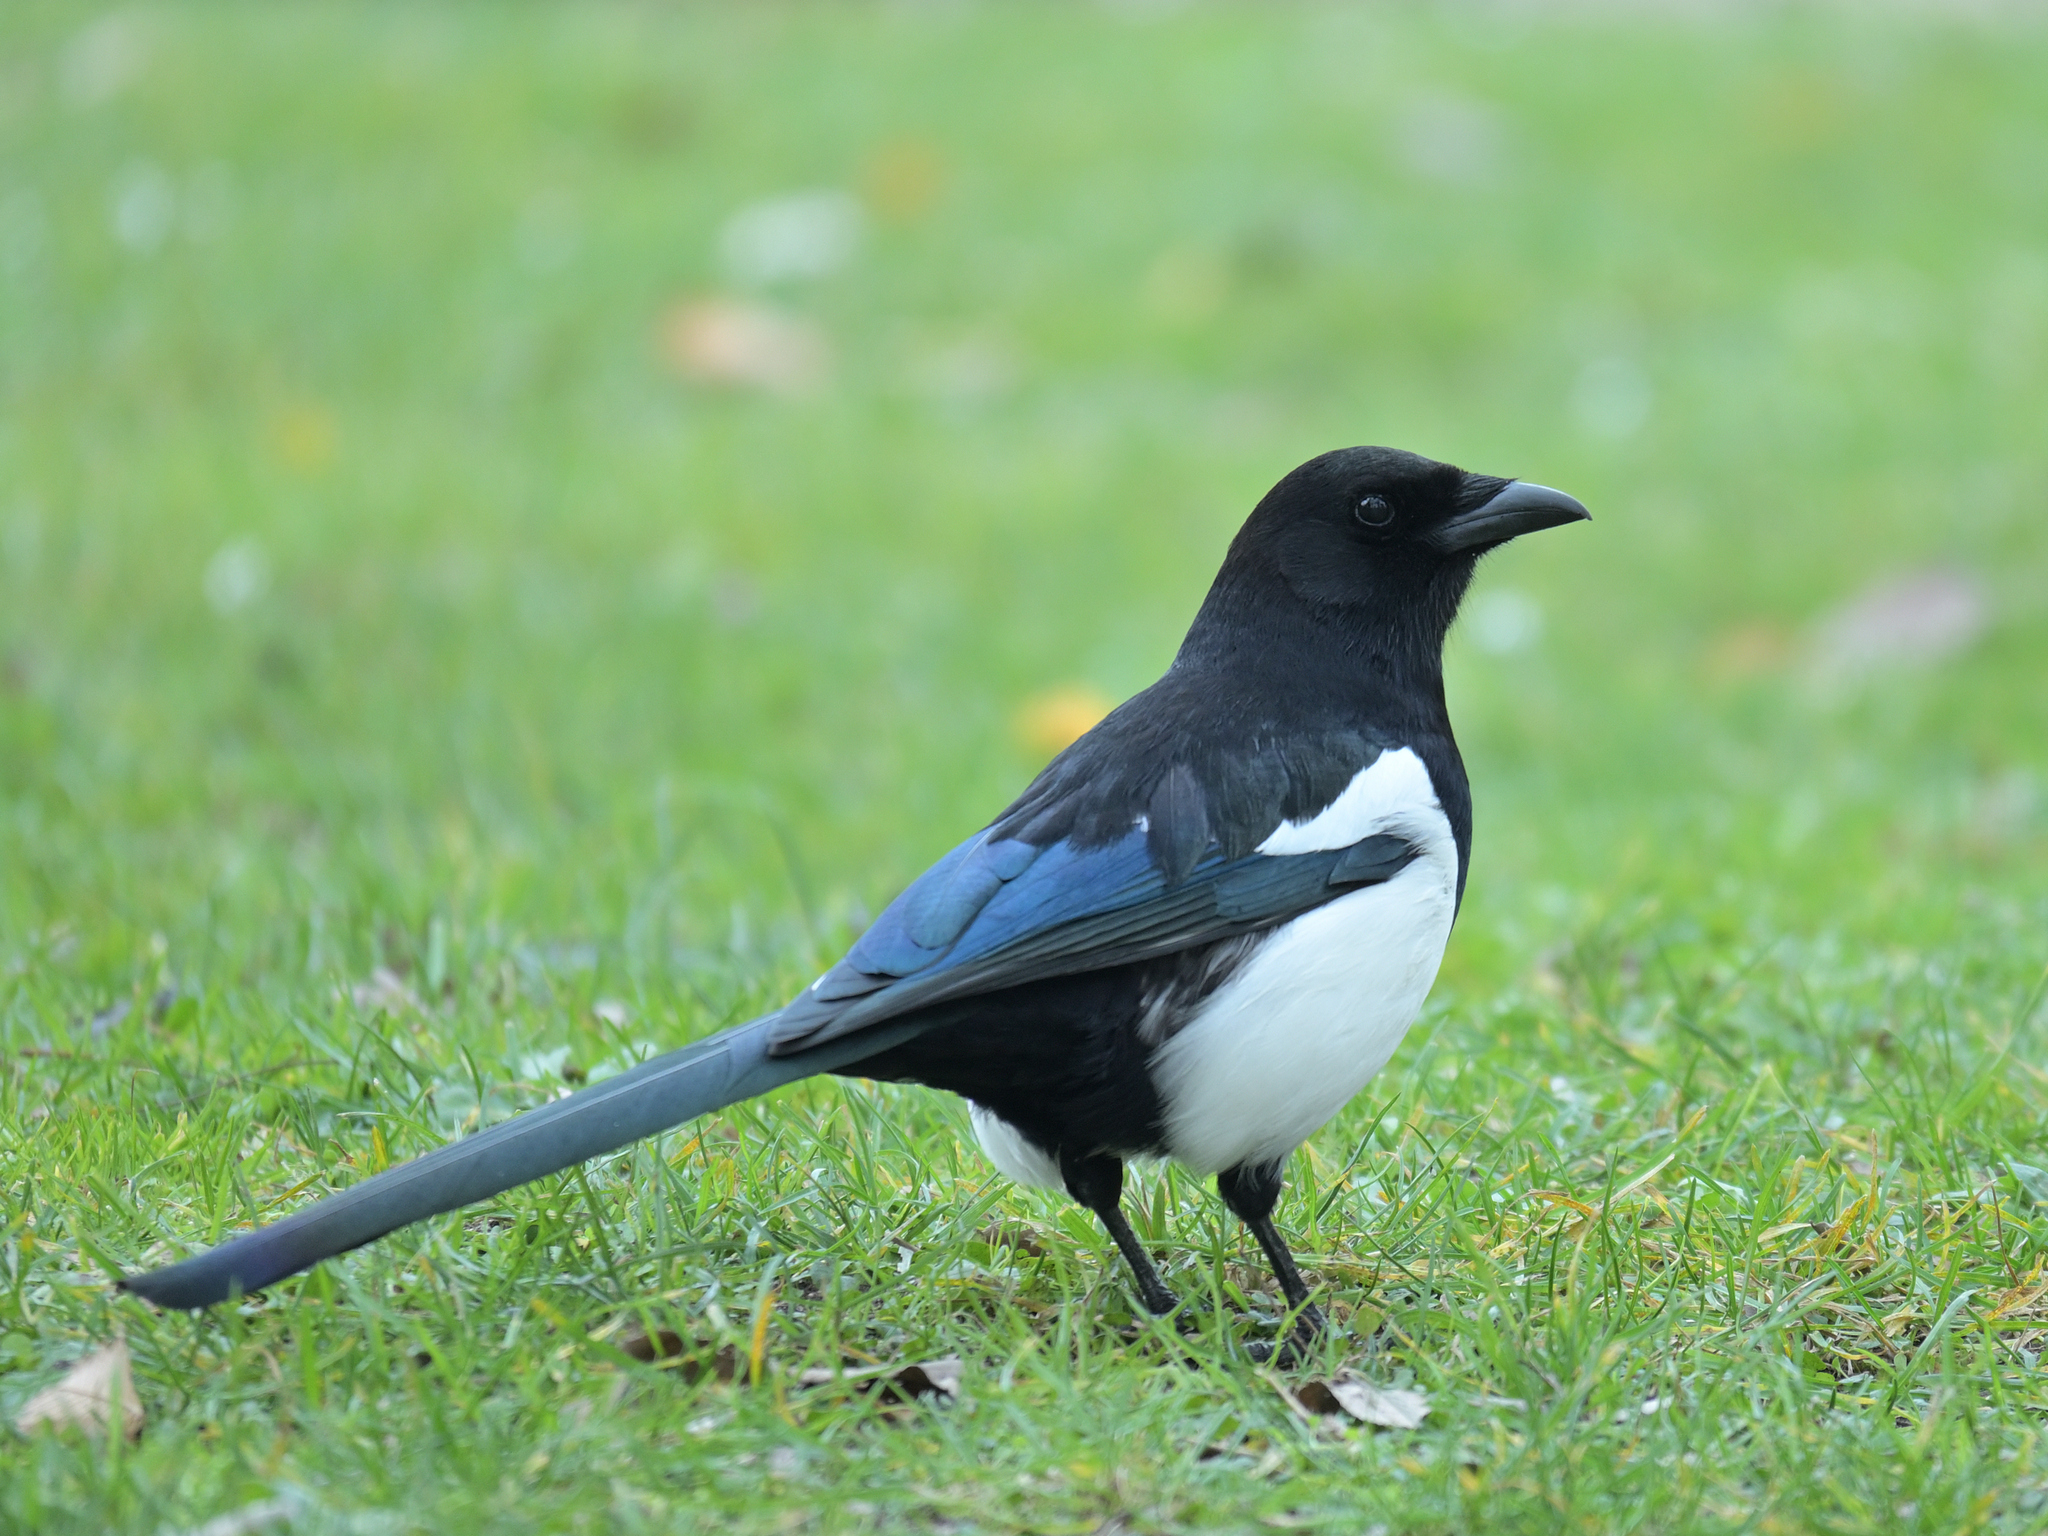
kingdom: Animalia
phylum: Chordata
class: Aves
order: Passeriformes
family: Corvidae
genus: Pica
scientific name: Pica pica
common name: Eurasian magpie
